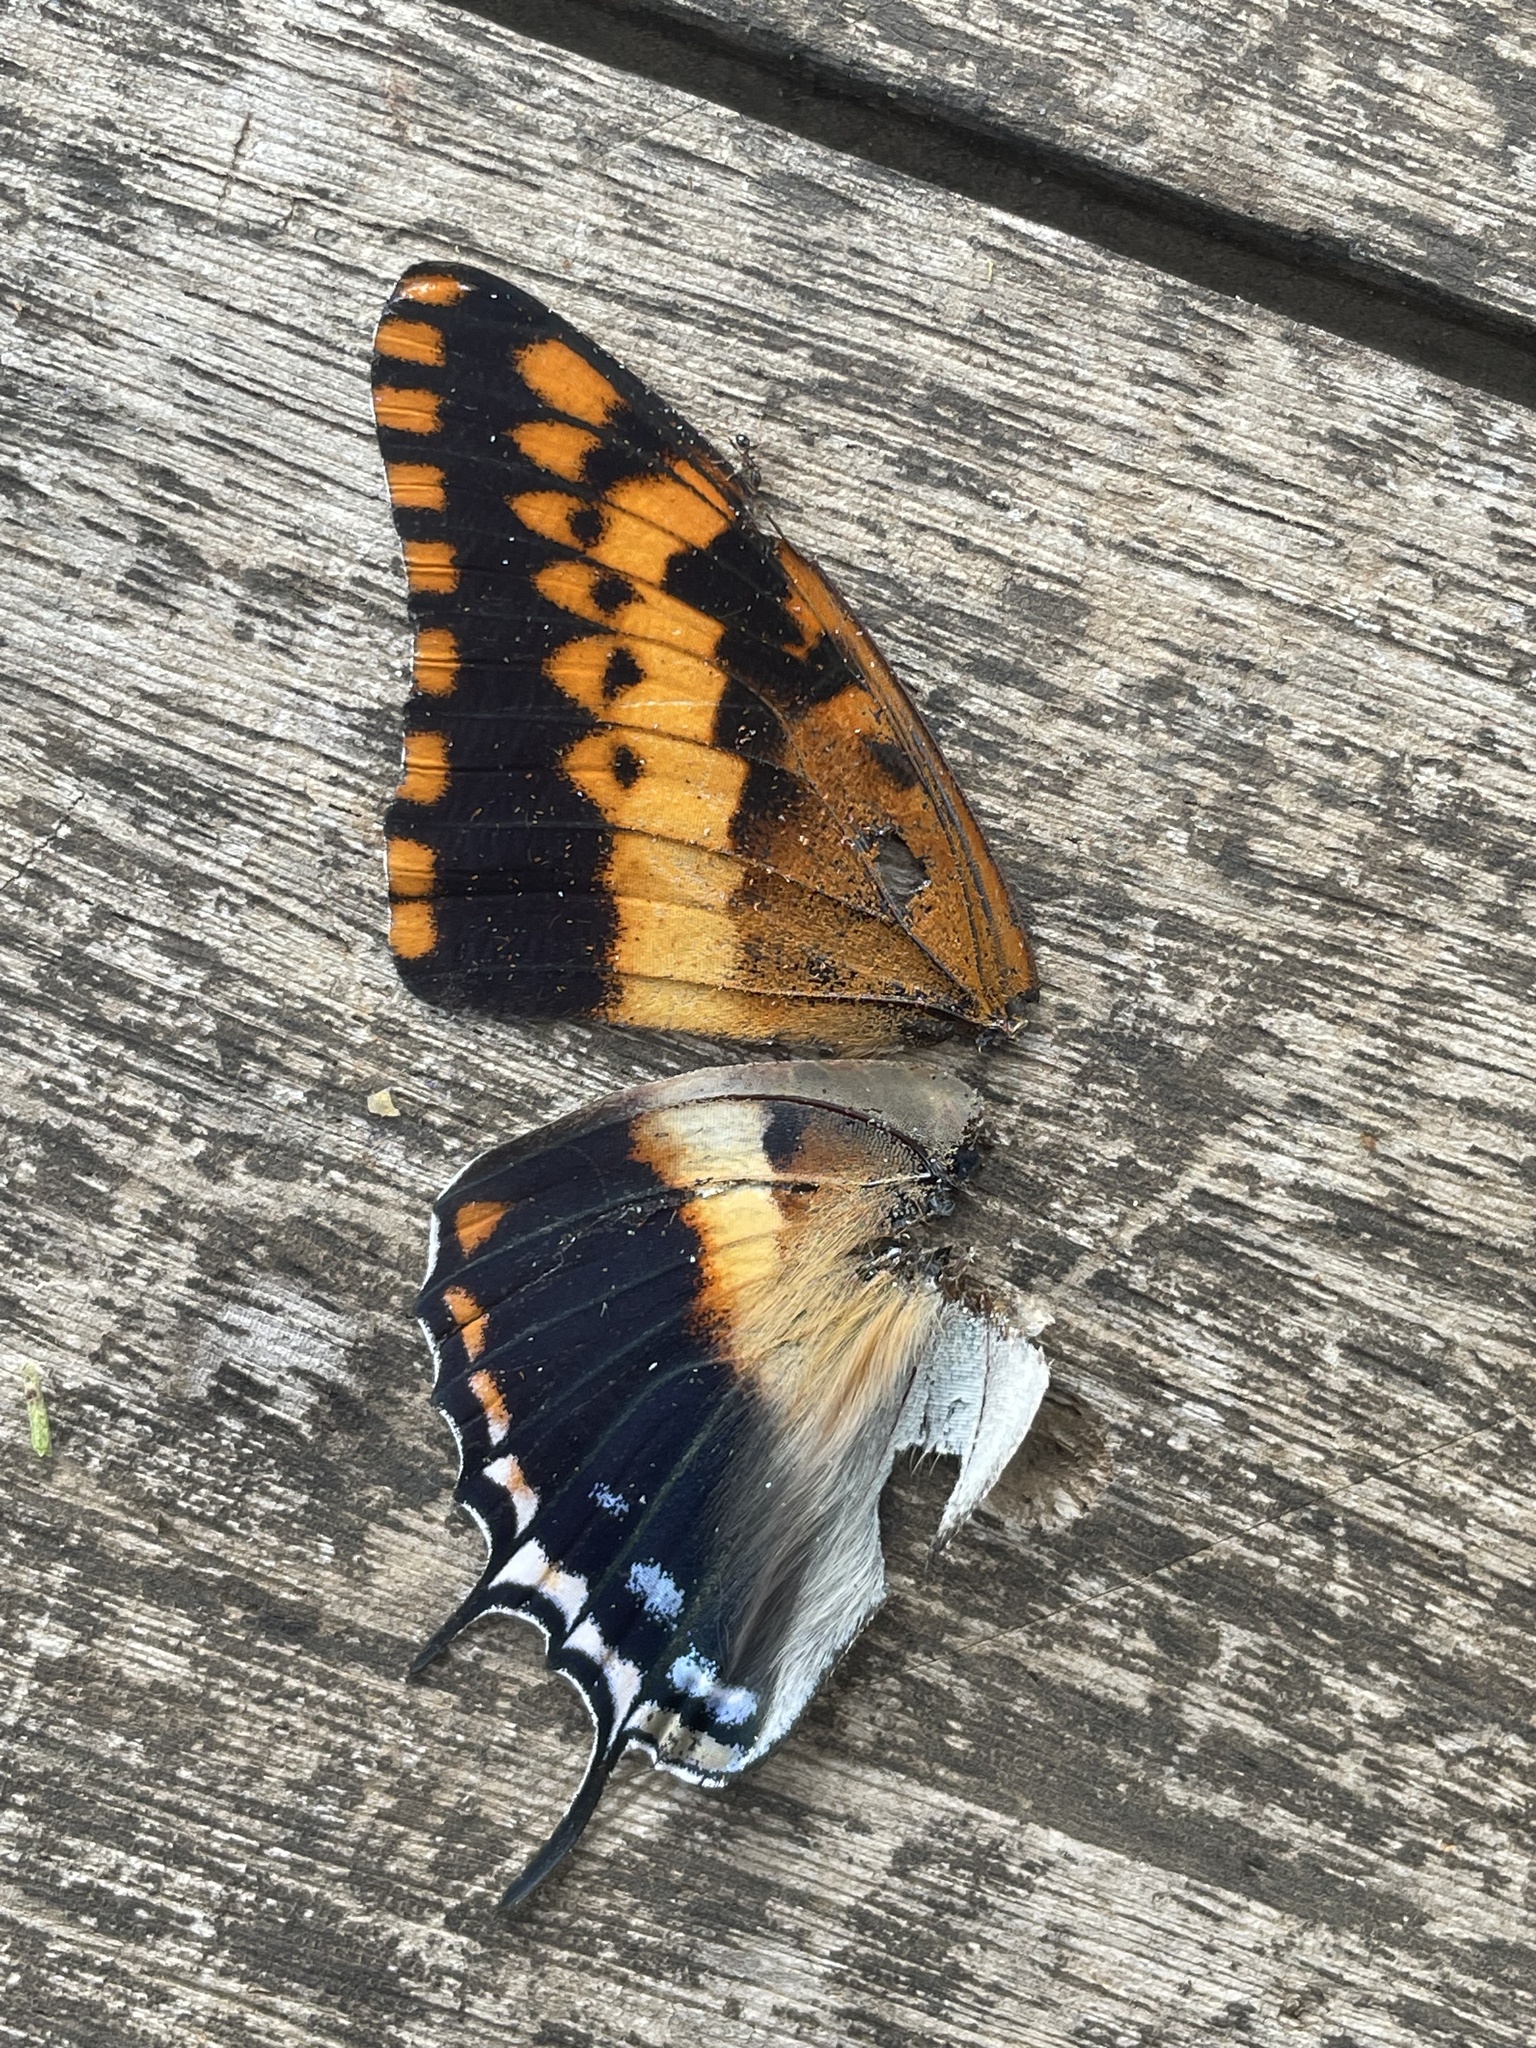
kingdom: Animalia
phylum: Arthropoda
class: Insecta
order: Lepidoptera
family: Nymphalidae
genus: Charaxes
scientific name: Charaxes jasius
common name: Two tailed pasha
